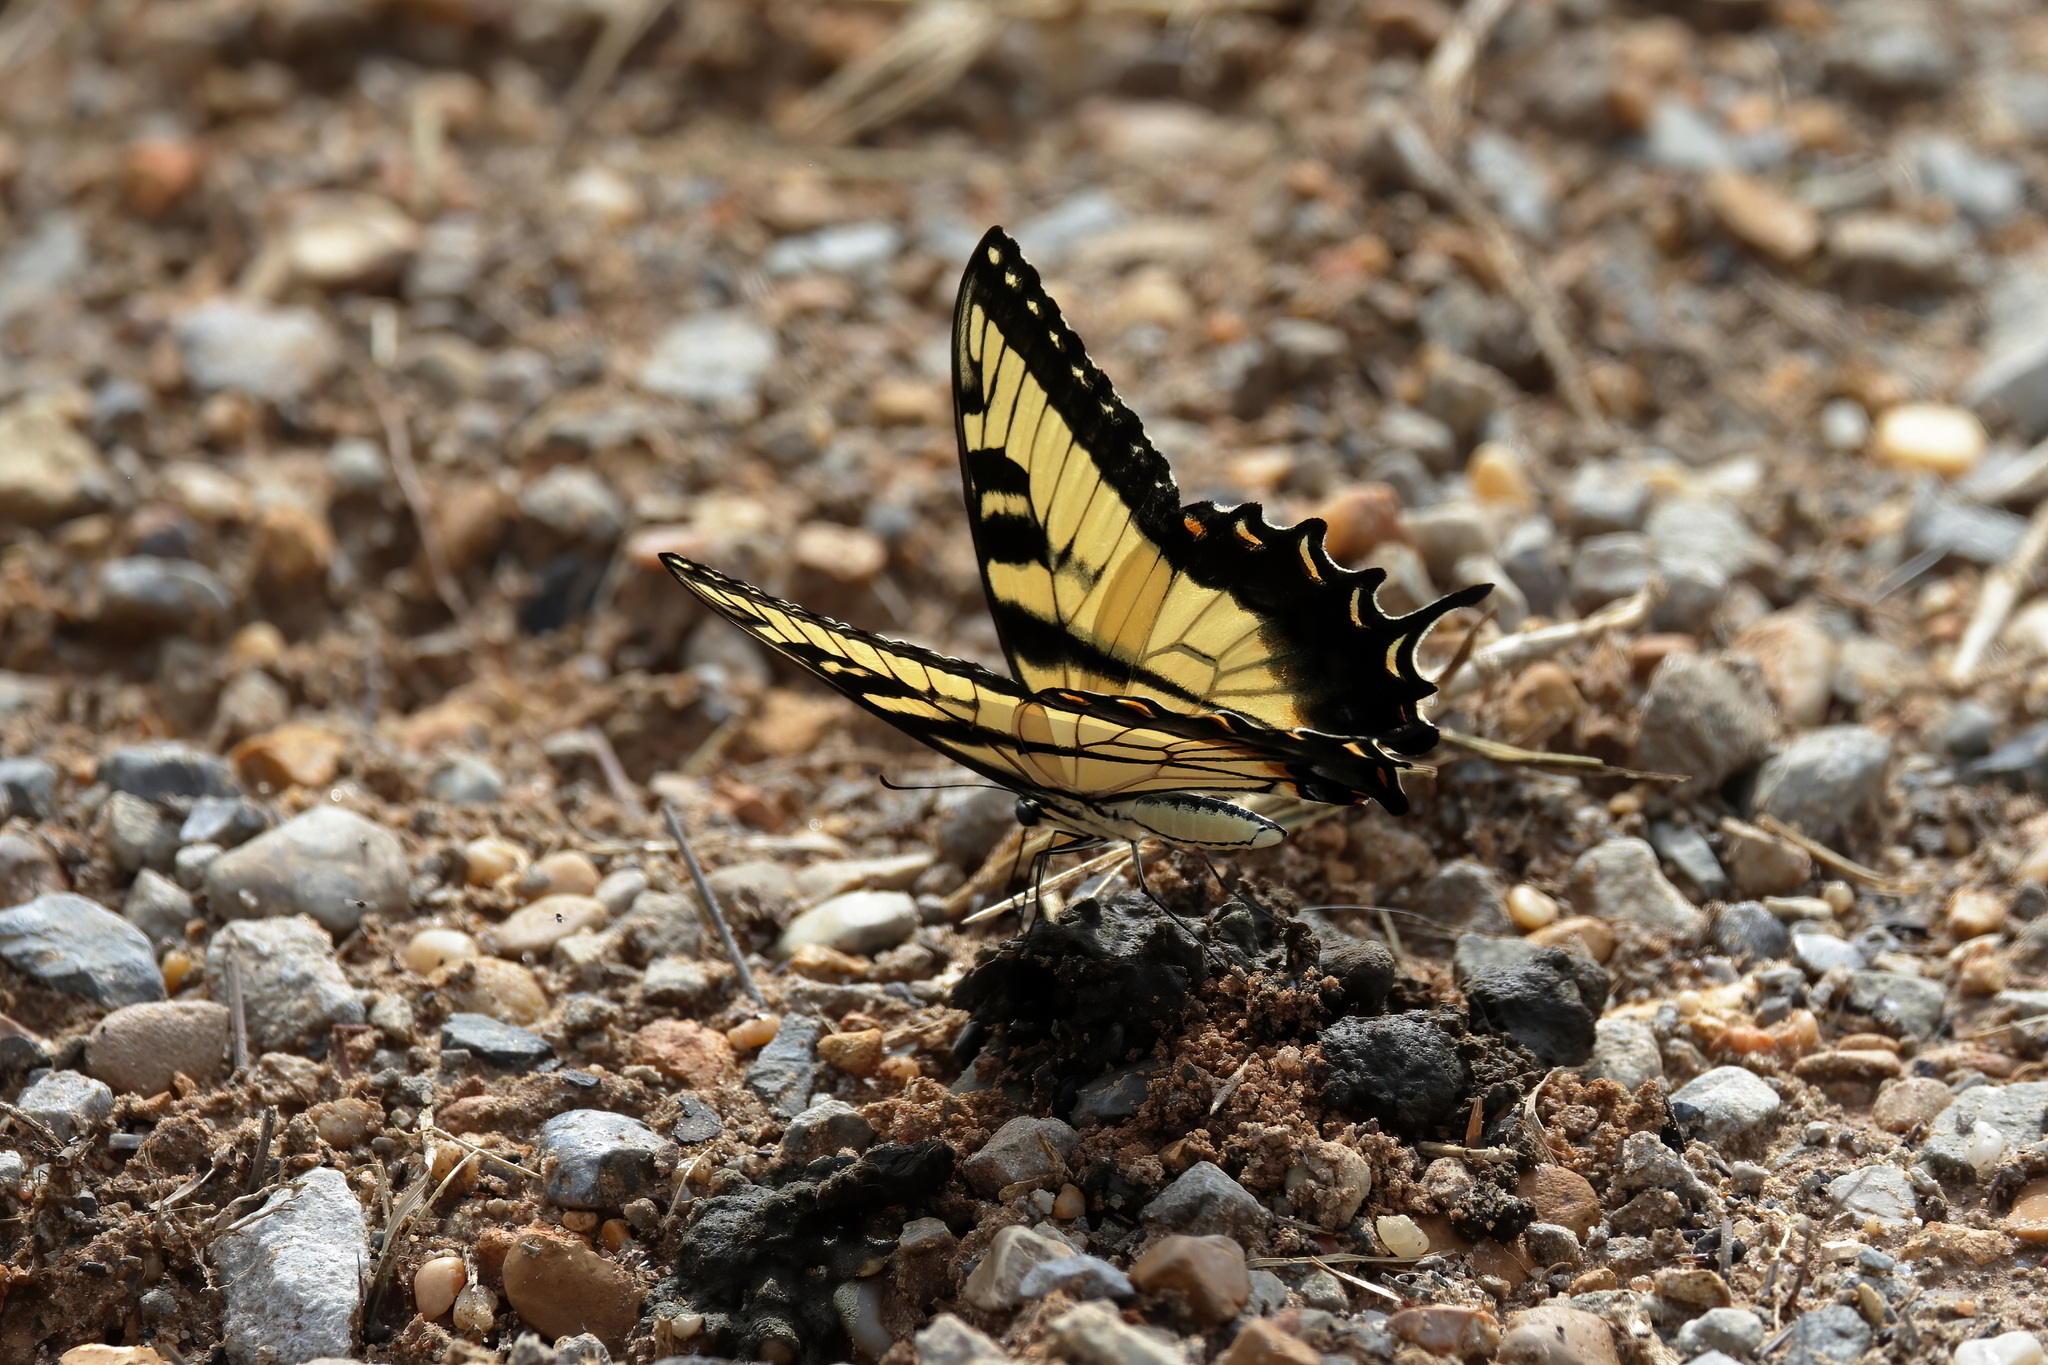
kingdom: Animalia
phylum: Arthropoda
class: Insecta
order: Lepidoptera
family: Papilionidae
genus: Papilio
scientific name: Papilio glaucus
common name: Tiger swallowtail
